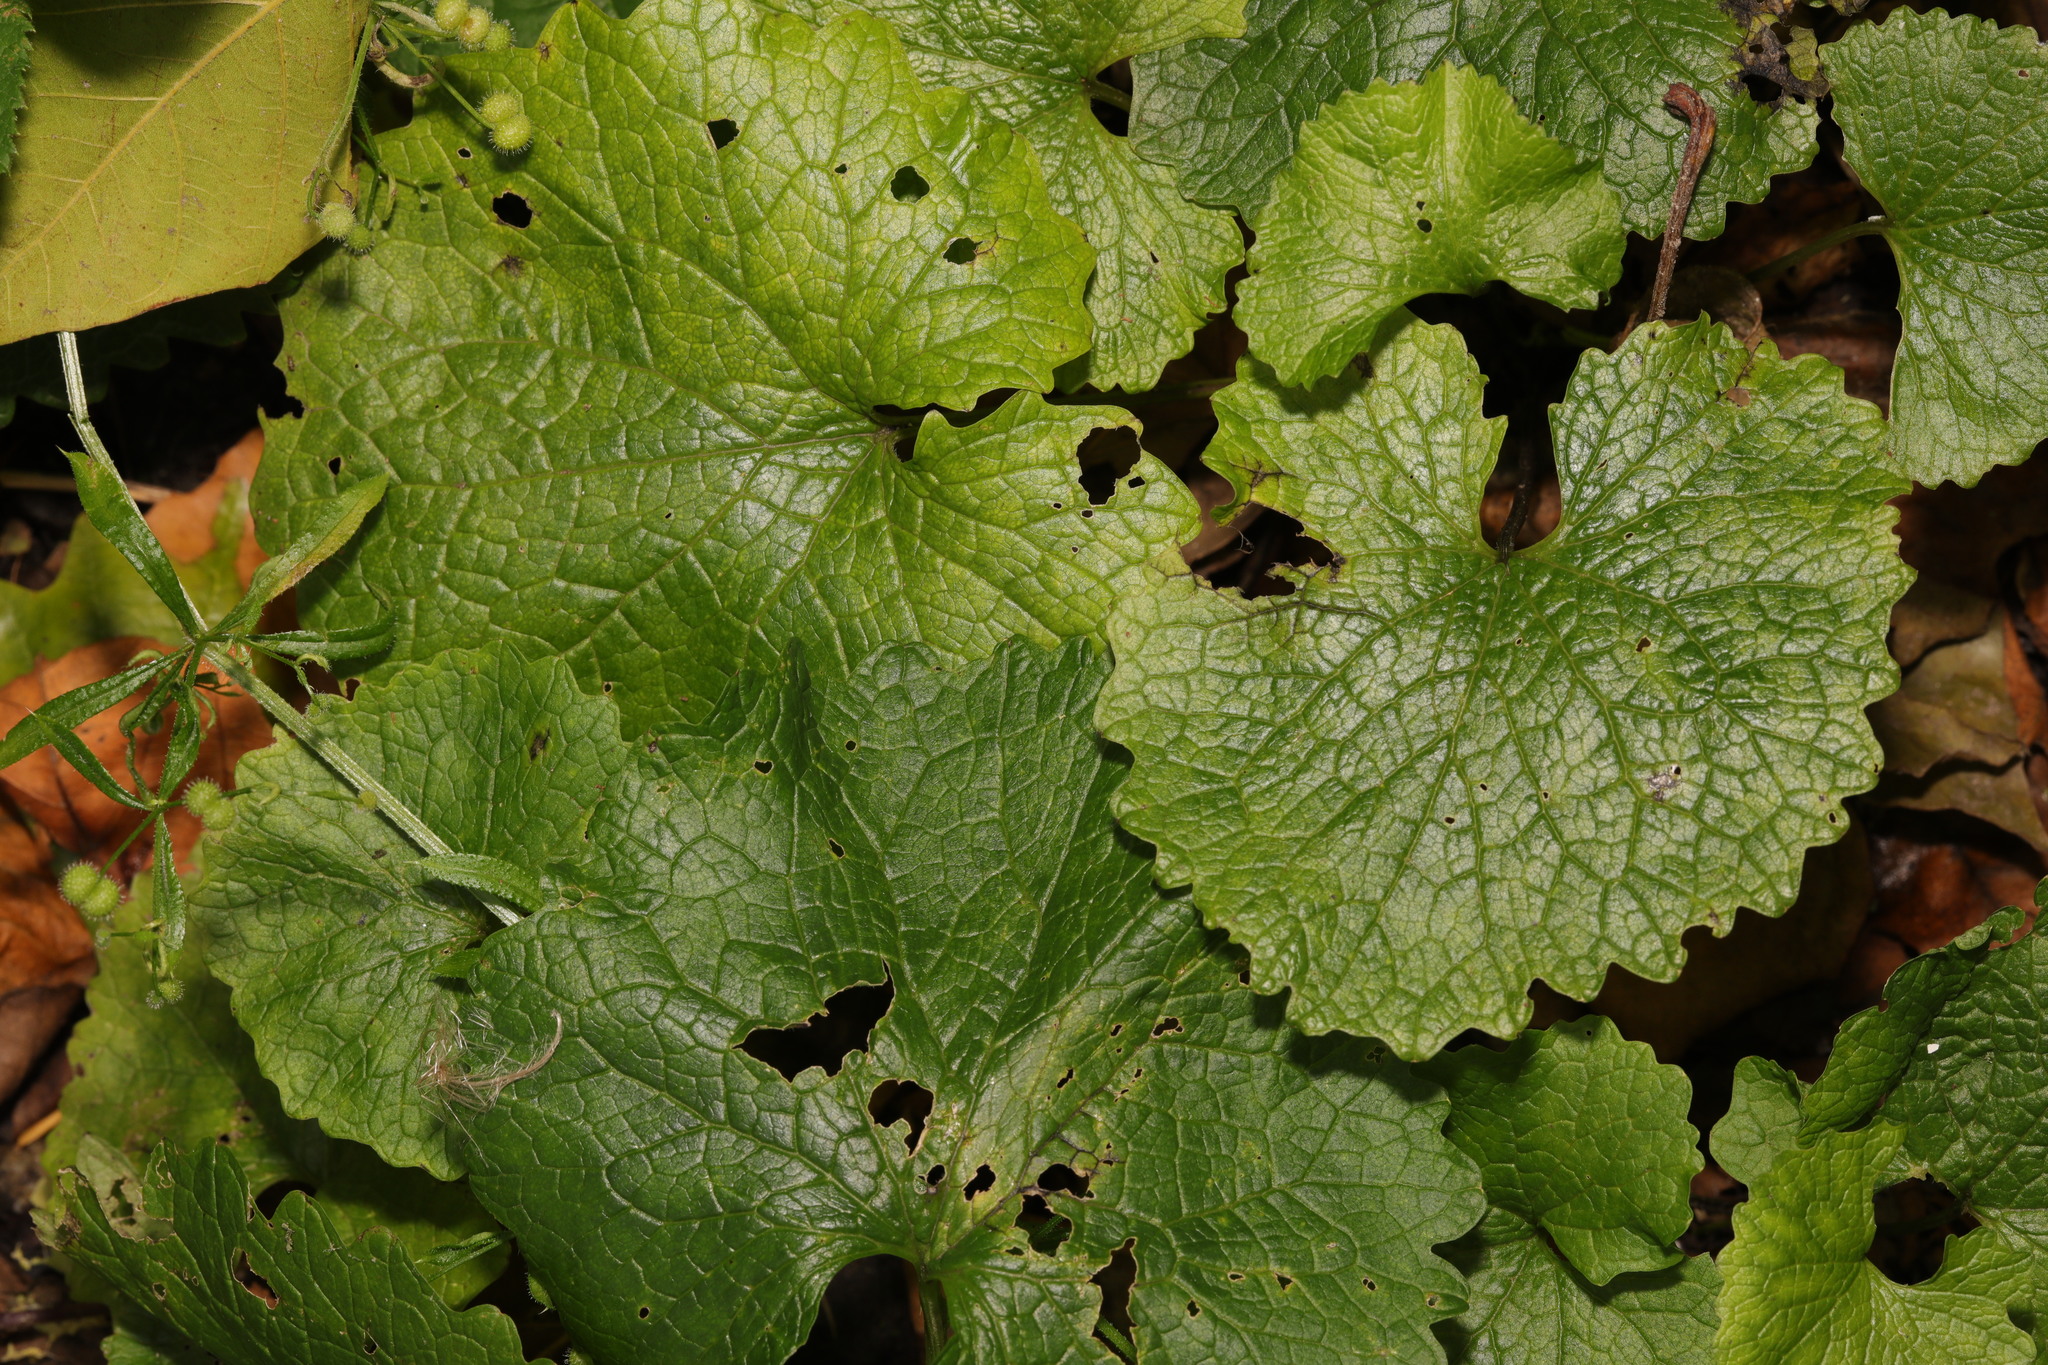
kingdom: Plantae
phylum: Tracheophyta
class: Magnoliopsida
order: Brassicales
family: Brassicaceae
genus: Alliaria
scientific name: Alliaria petiolata
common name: Garlic mustard
